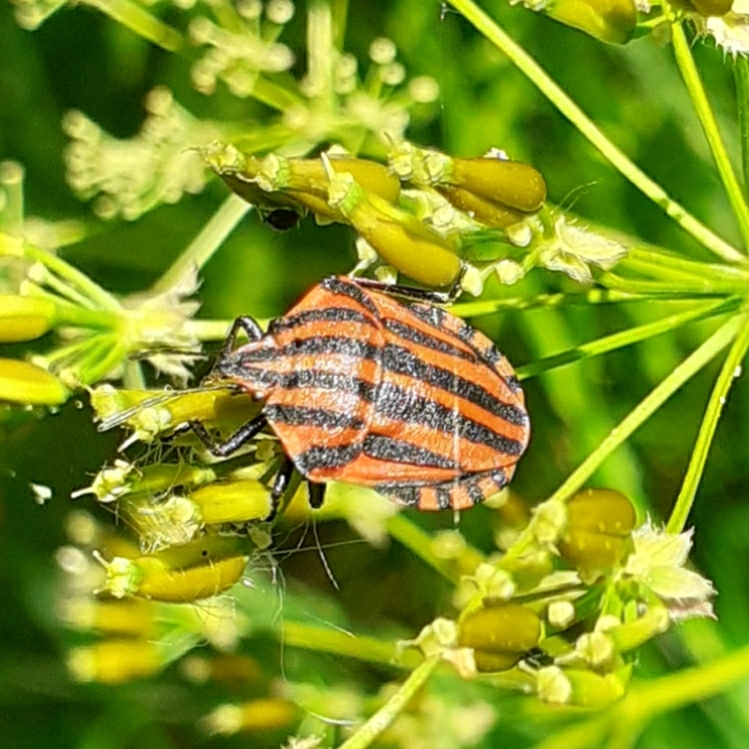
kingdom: Animalia
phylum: Arthropoda
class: Insecta
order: Hemiptera
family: Pentatomidae
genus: Graphosoma
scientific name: Graphosoma italicum
